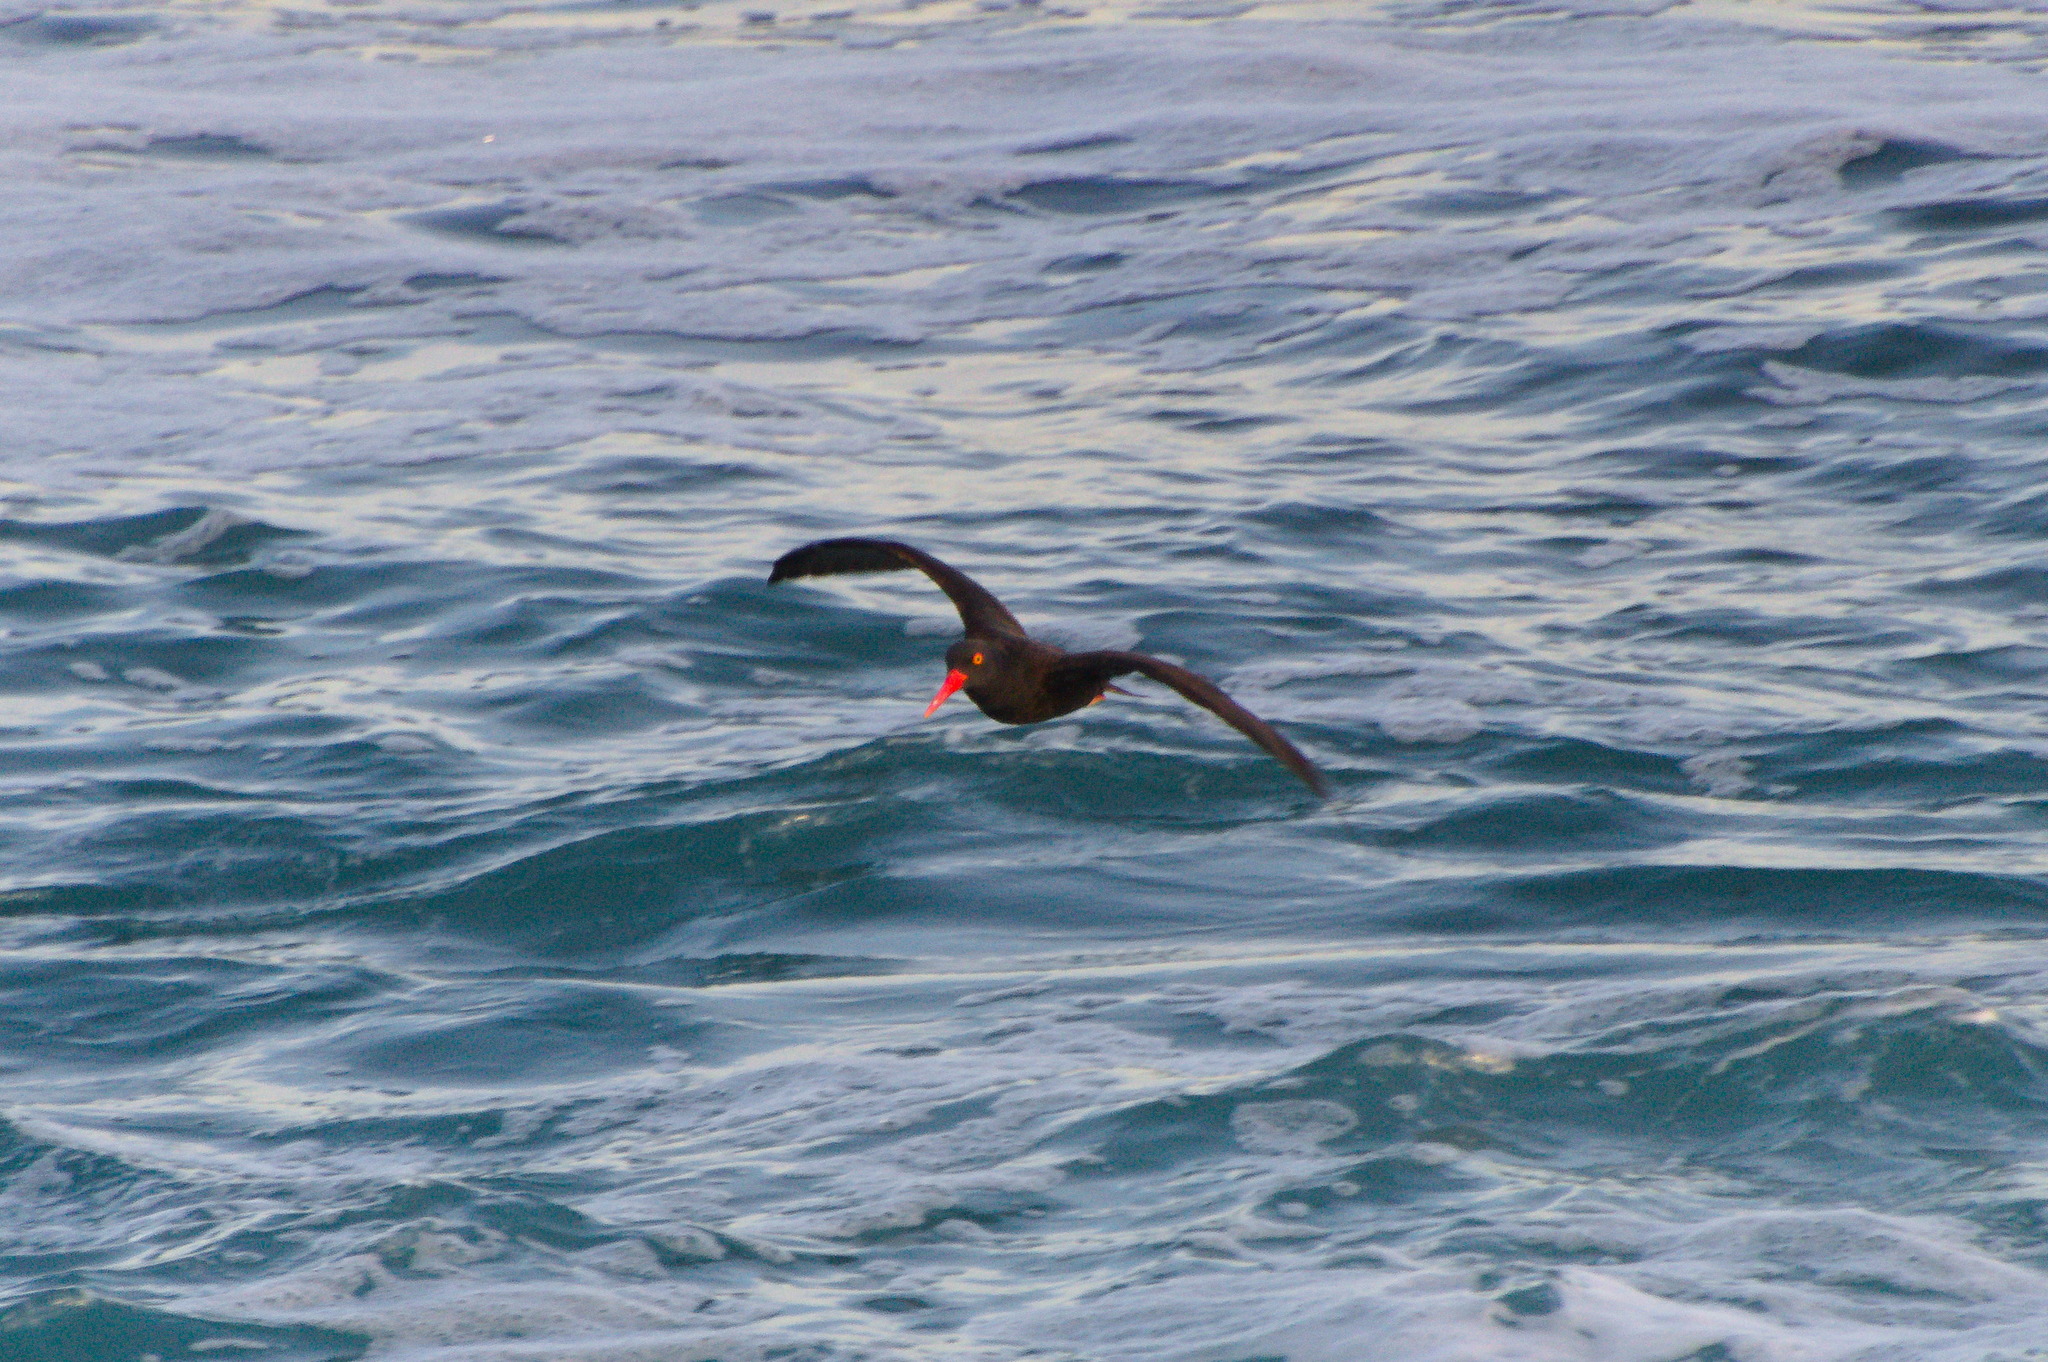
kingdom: Animalia
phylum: Chordata
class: Aves
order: Charadriiformes
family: Haematopodidae
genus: Haematopus
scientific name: Haematopus bachmani
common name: Black oystercatcher
